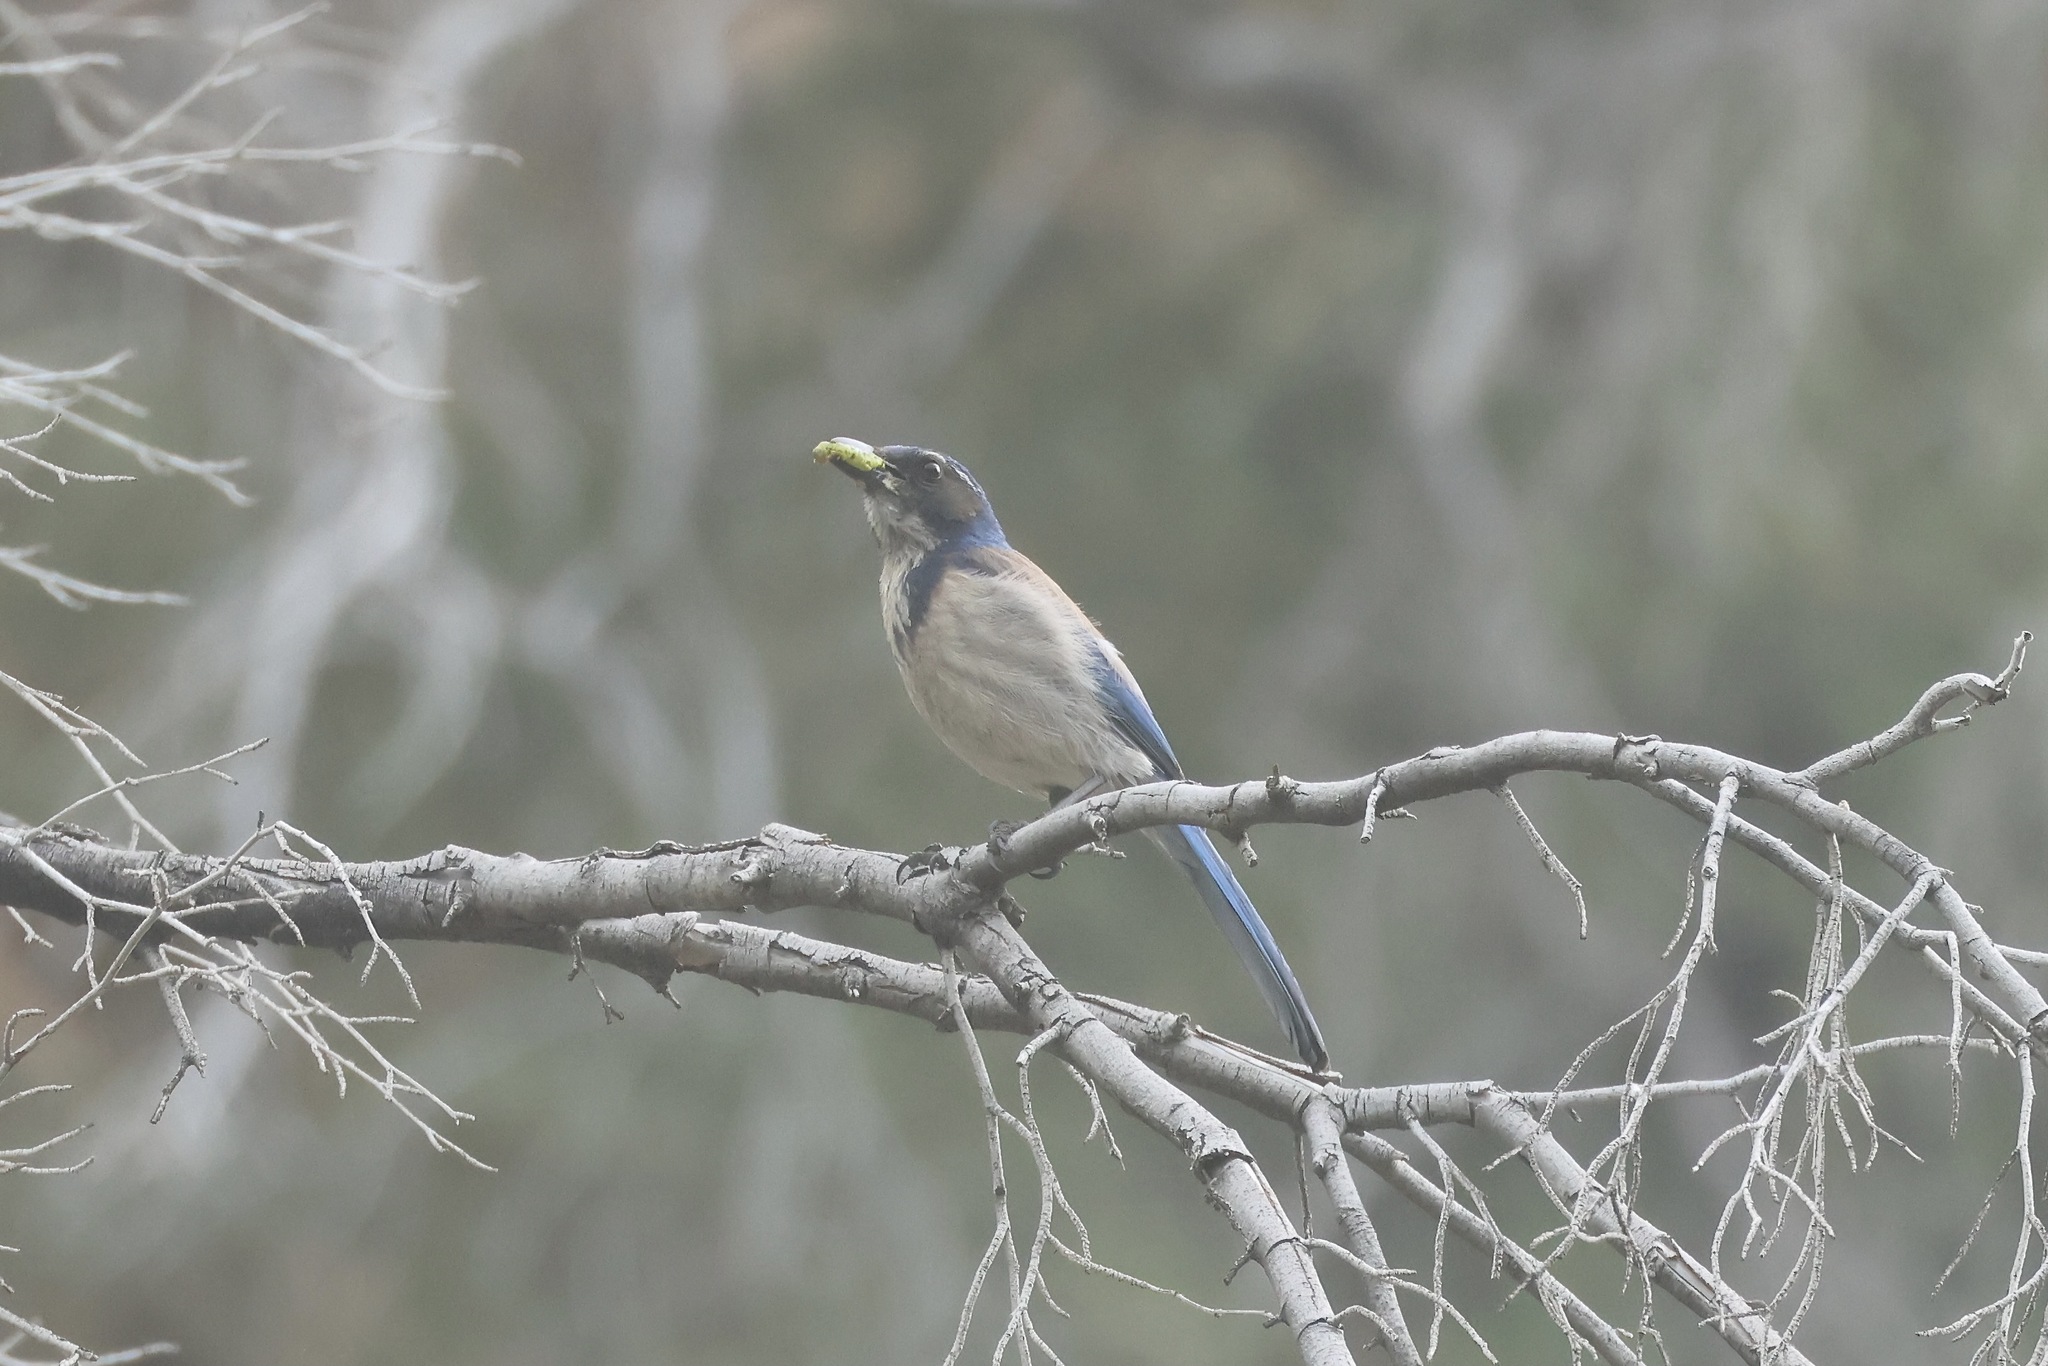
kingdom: Animalia
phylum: Chordata
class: Aves
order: Passeriformes
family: Corvidae
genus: Aphelocoma
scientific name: Aphelocoma californica
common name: California scrub-jay
